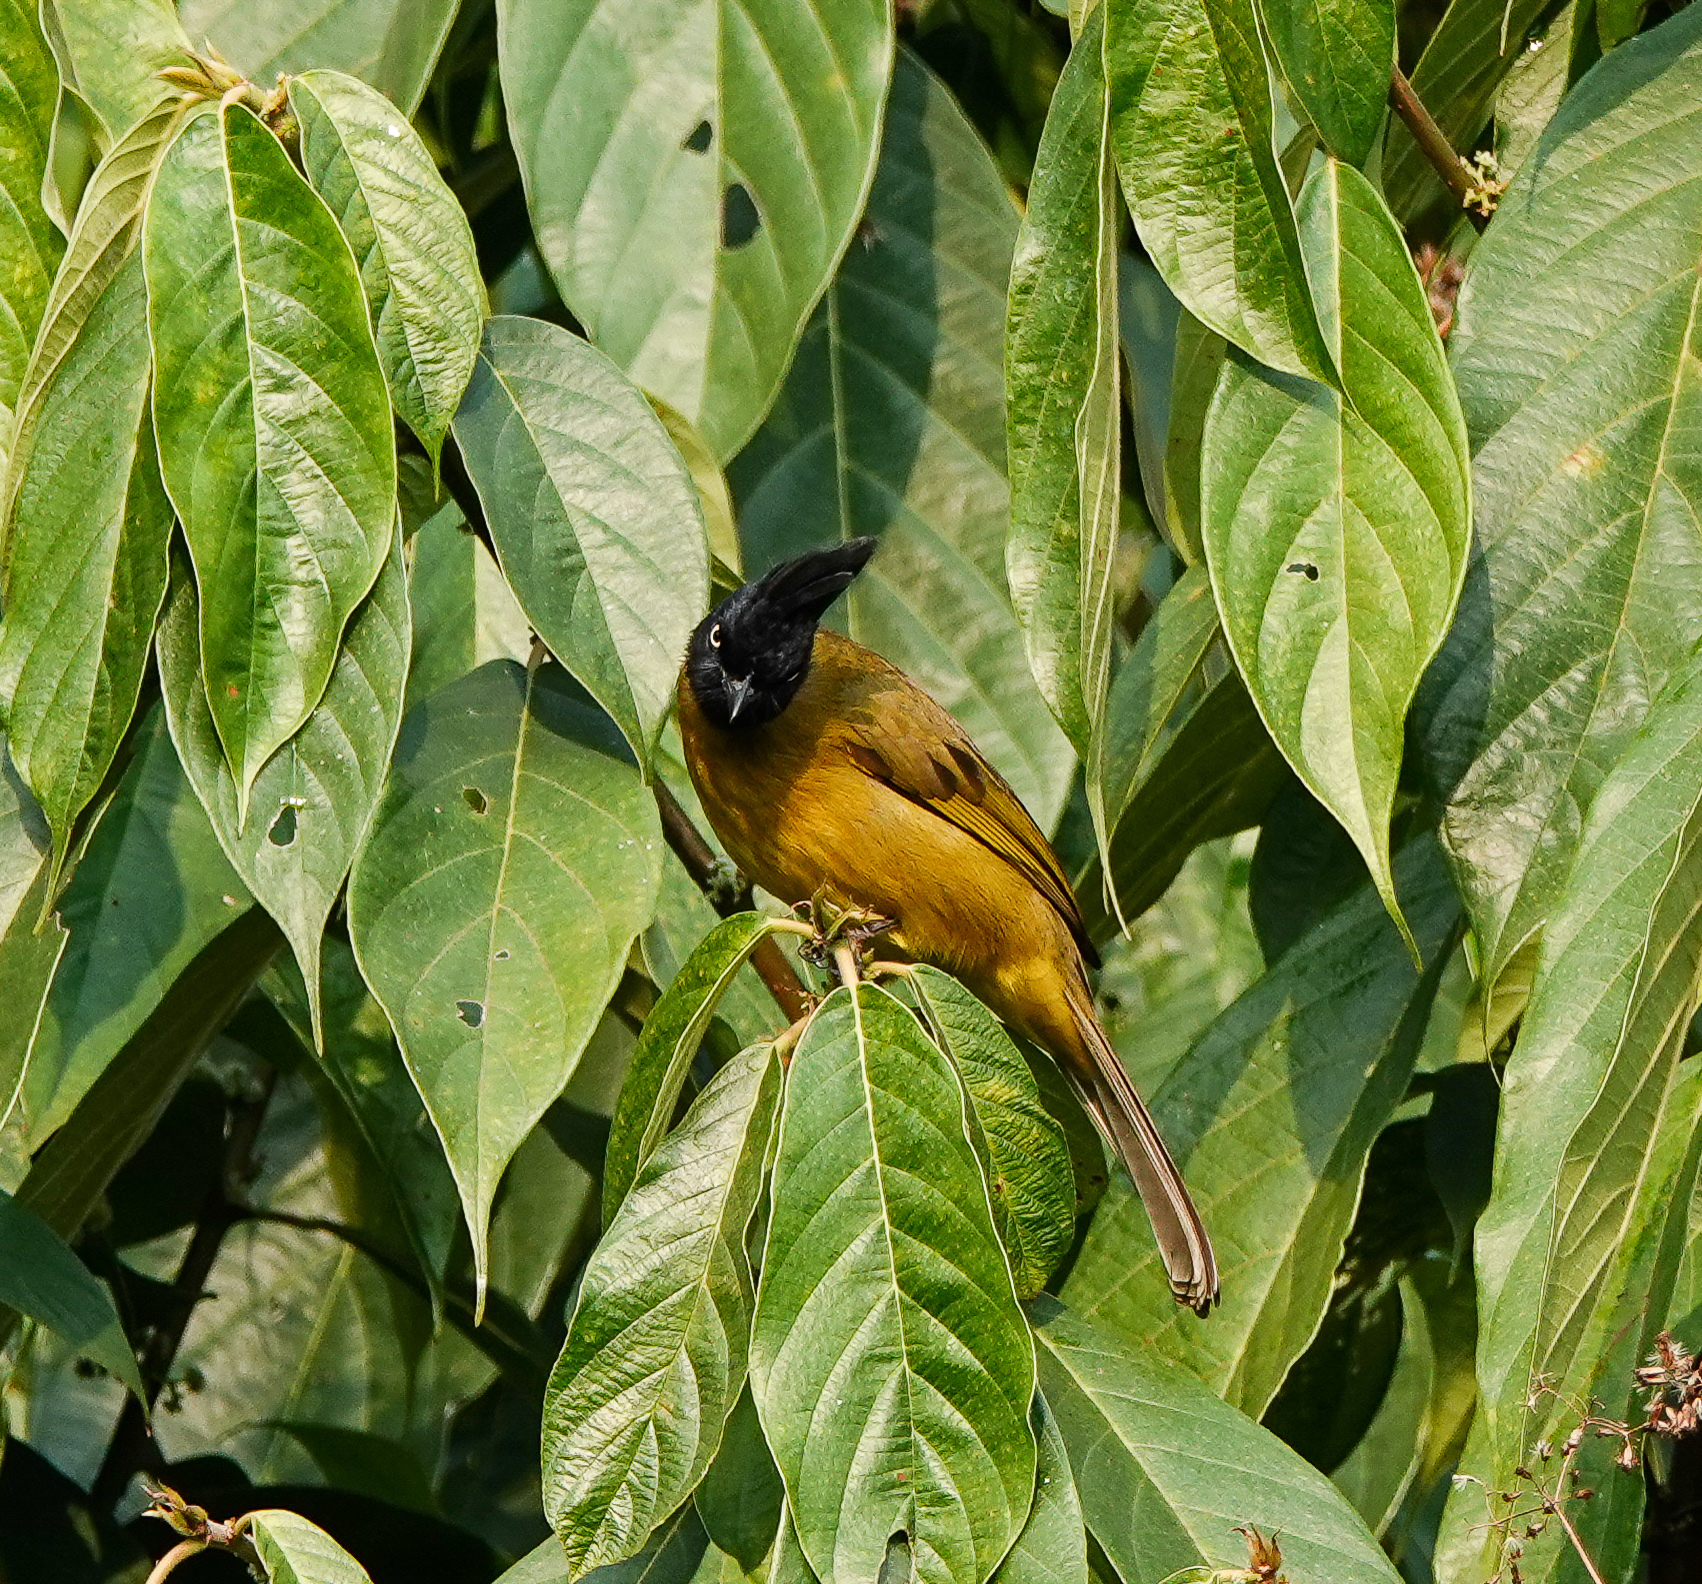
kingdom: Animalia
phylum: Chordata
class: Aves
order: Passeriformes
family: Pycnonotidae
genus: Pycnonotus
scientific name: Pycnonotus flaviventris
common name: Black-crested bulbul
